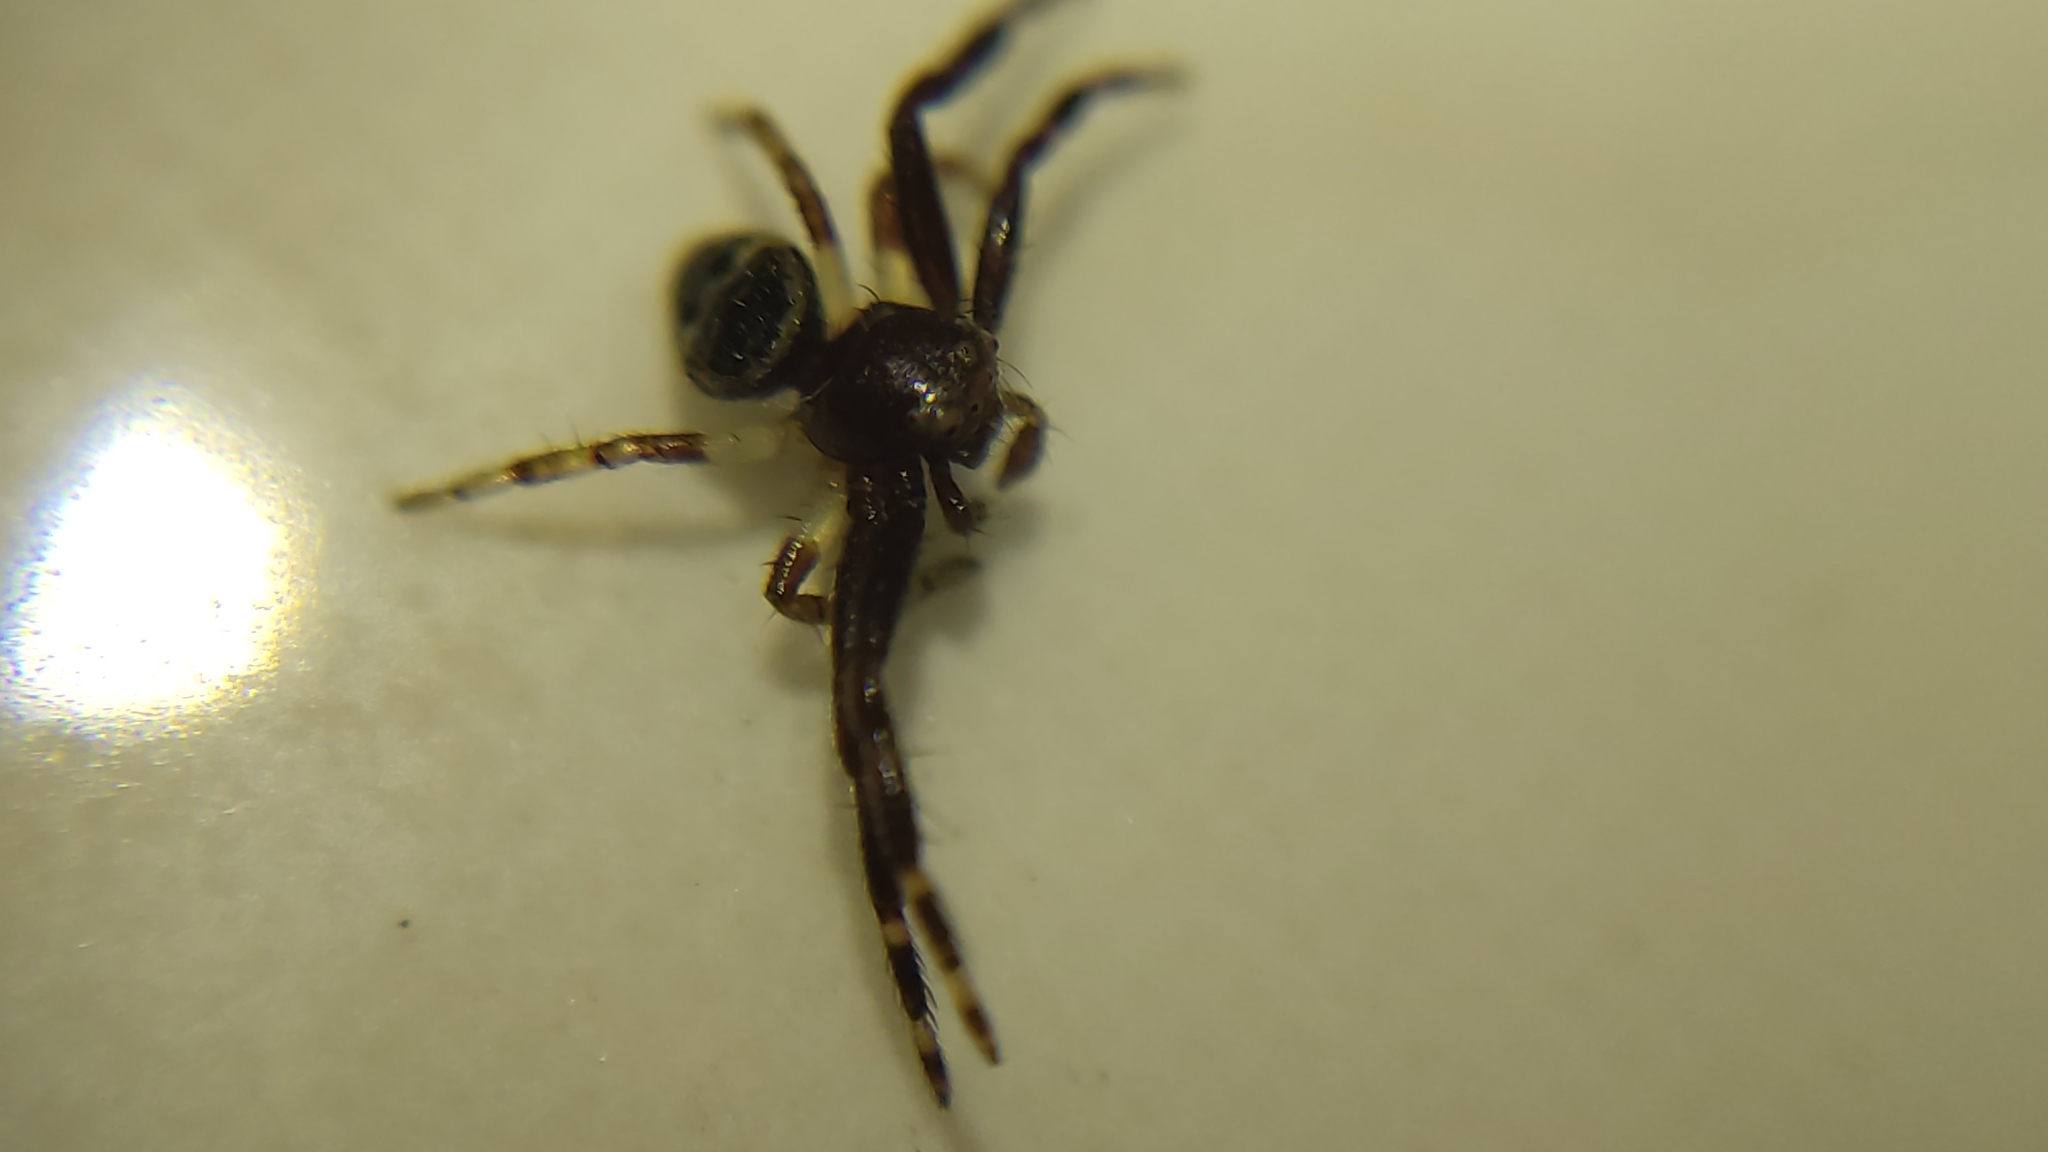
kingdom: Animalia
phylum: Arthropoda
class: Arachnida
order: Araneae
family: Thomisidae
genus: Synema
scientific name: Synema globosum
